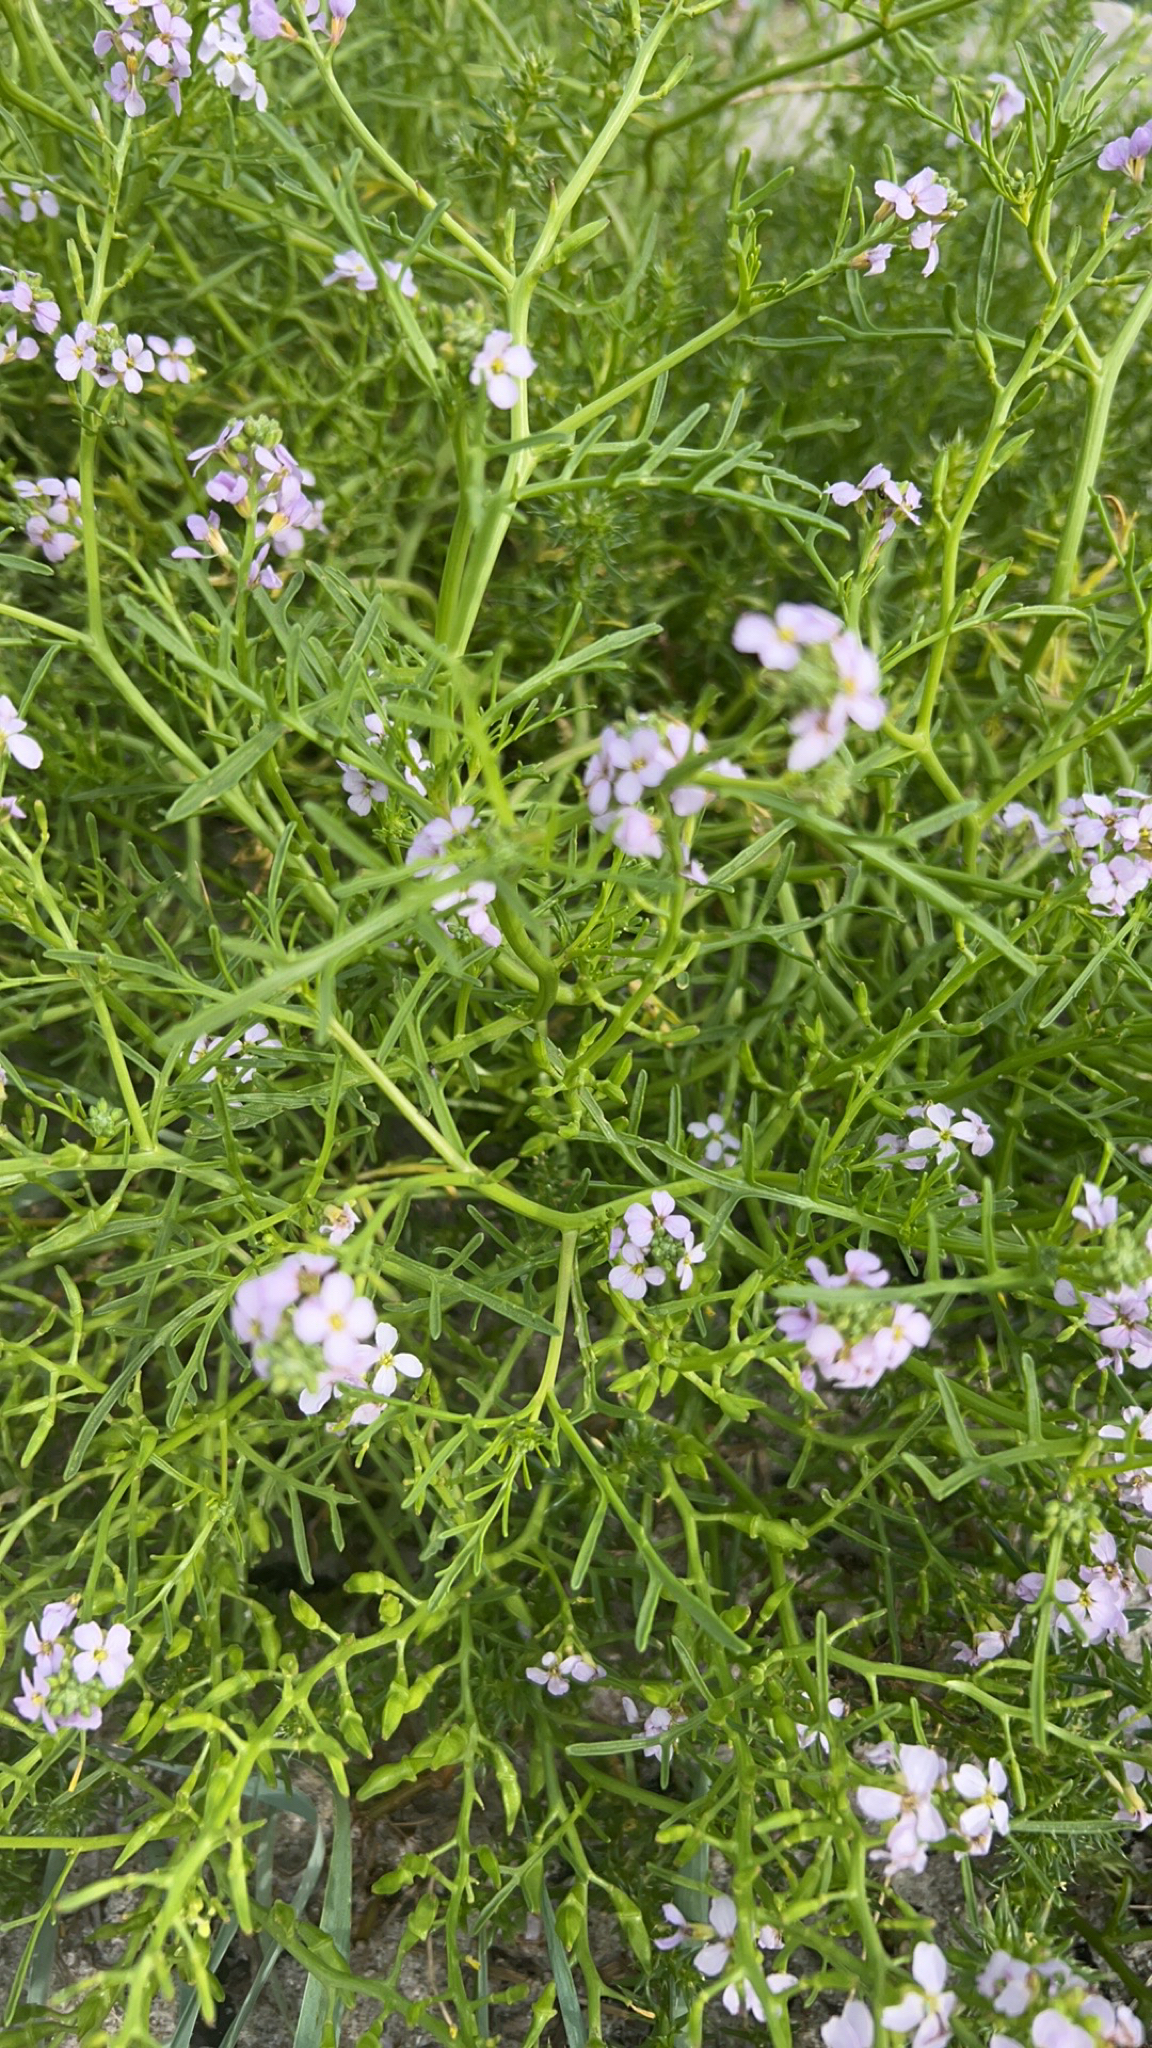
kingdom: Plantae
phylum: Tracheophyta
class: Magnoliopsida
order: Brassicales
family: Brassicaceae
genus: Cakile
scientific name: Cakile maritima
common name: Sea rocket
